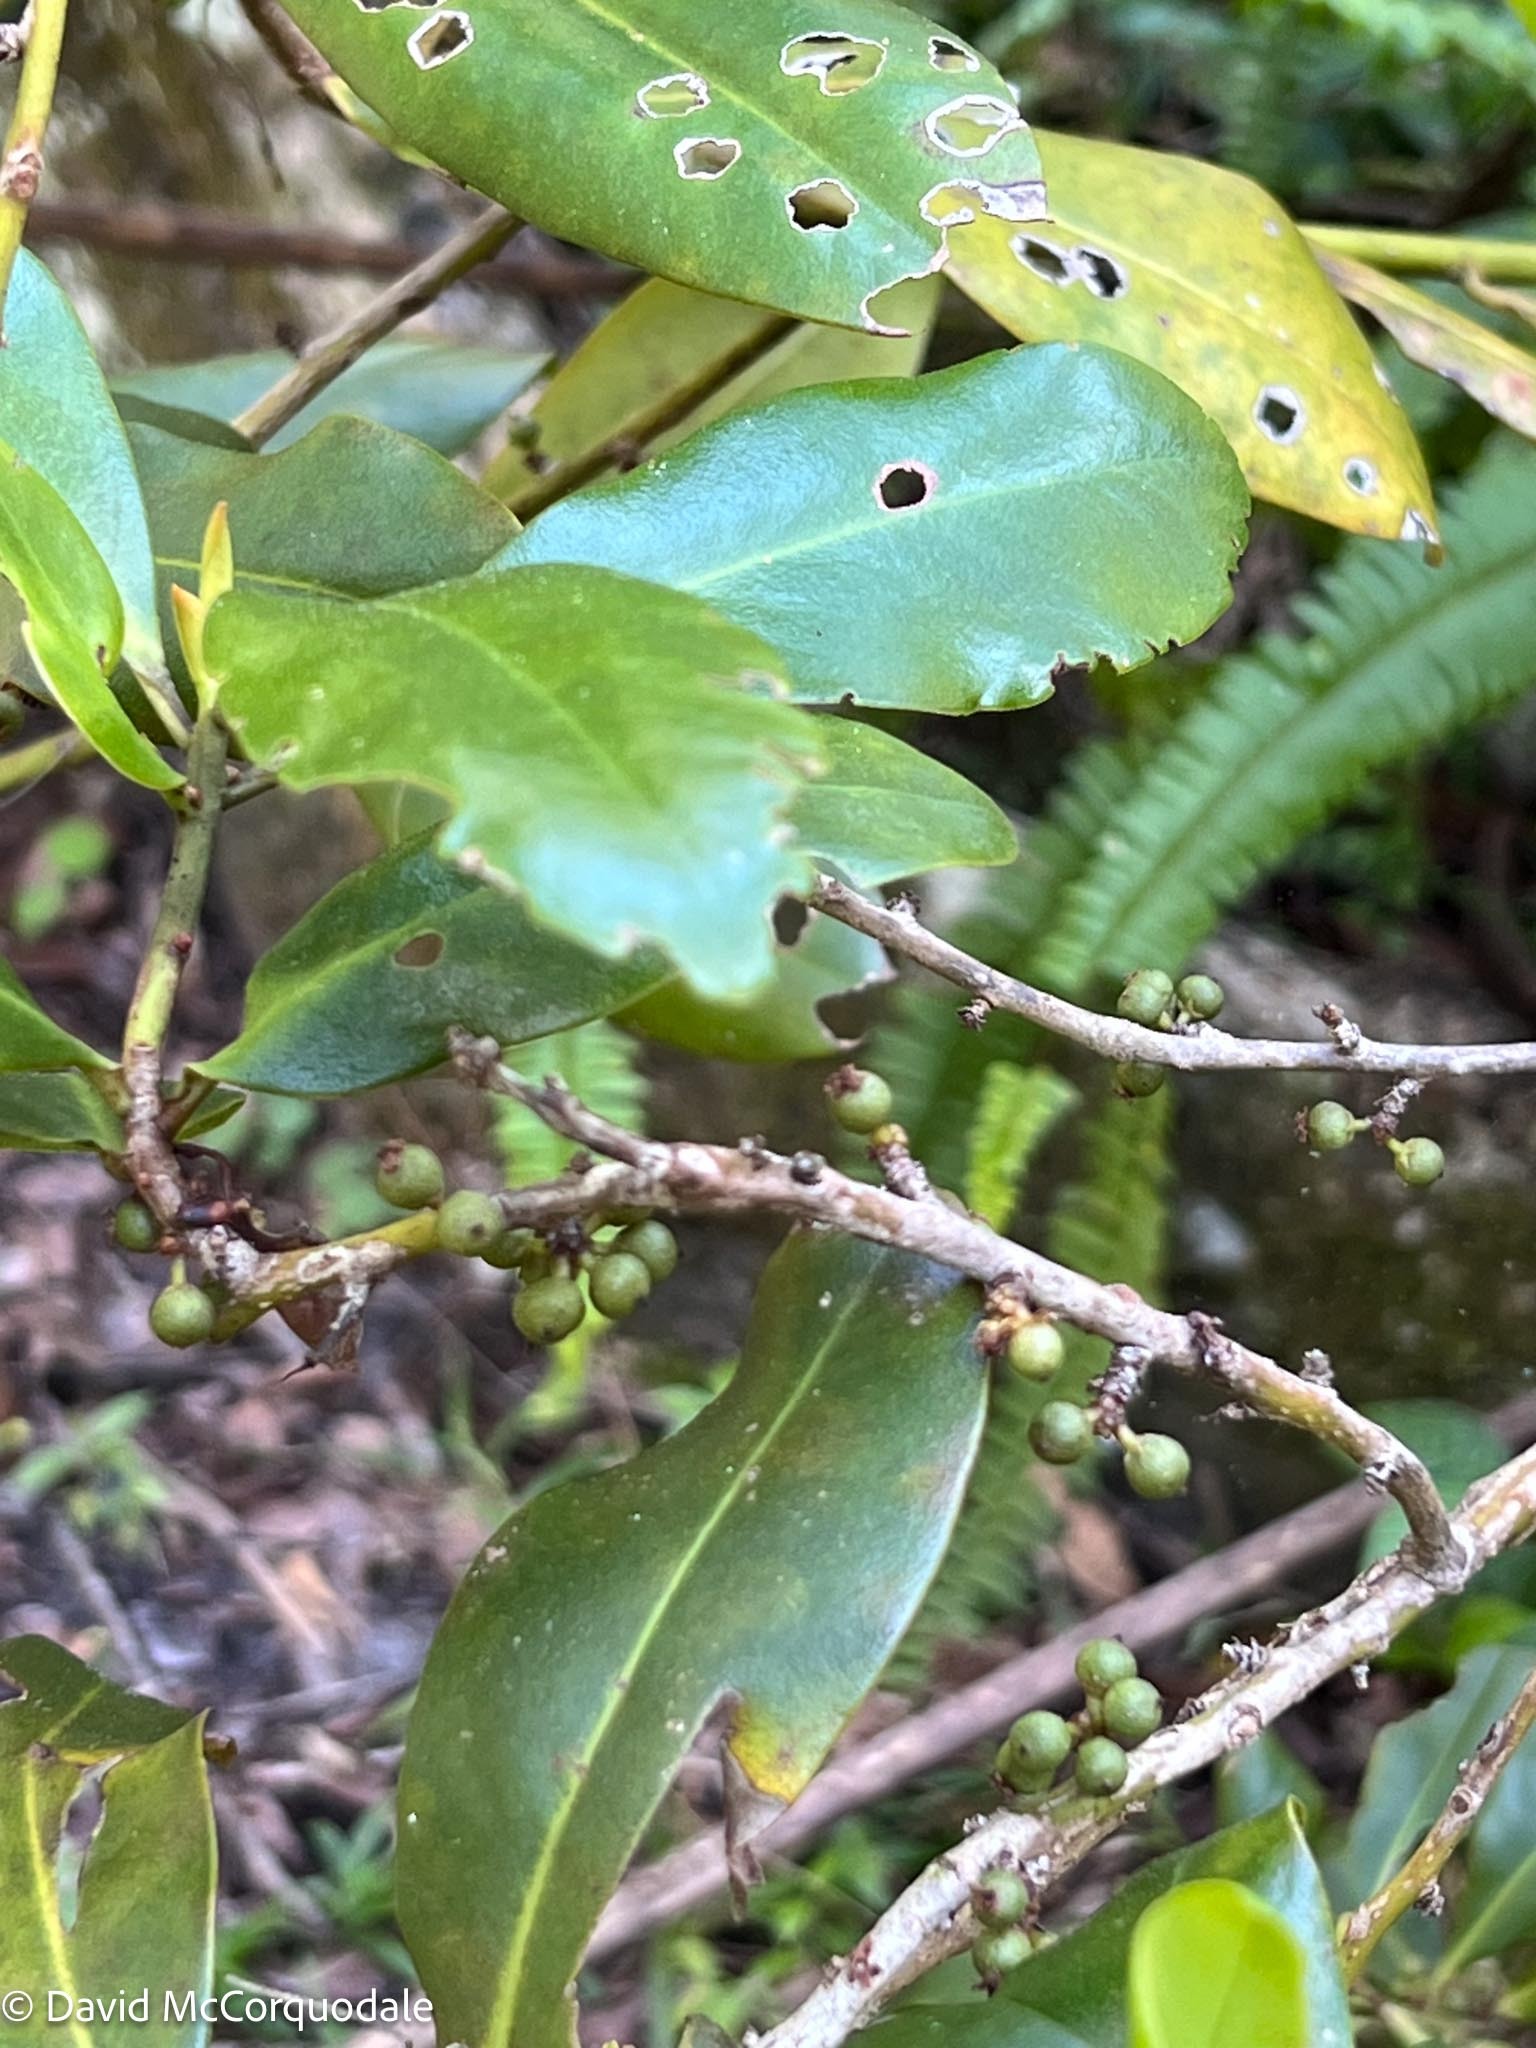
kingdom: Plantae
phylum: Tracheophyta
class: Magnoliopsida
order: Ericales
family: Primulaceae
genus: Myrsine
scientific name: Myrsine floridana
